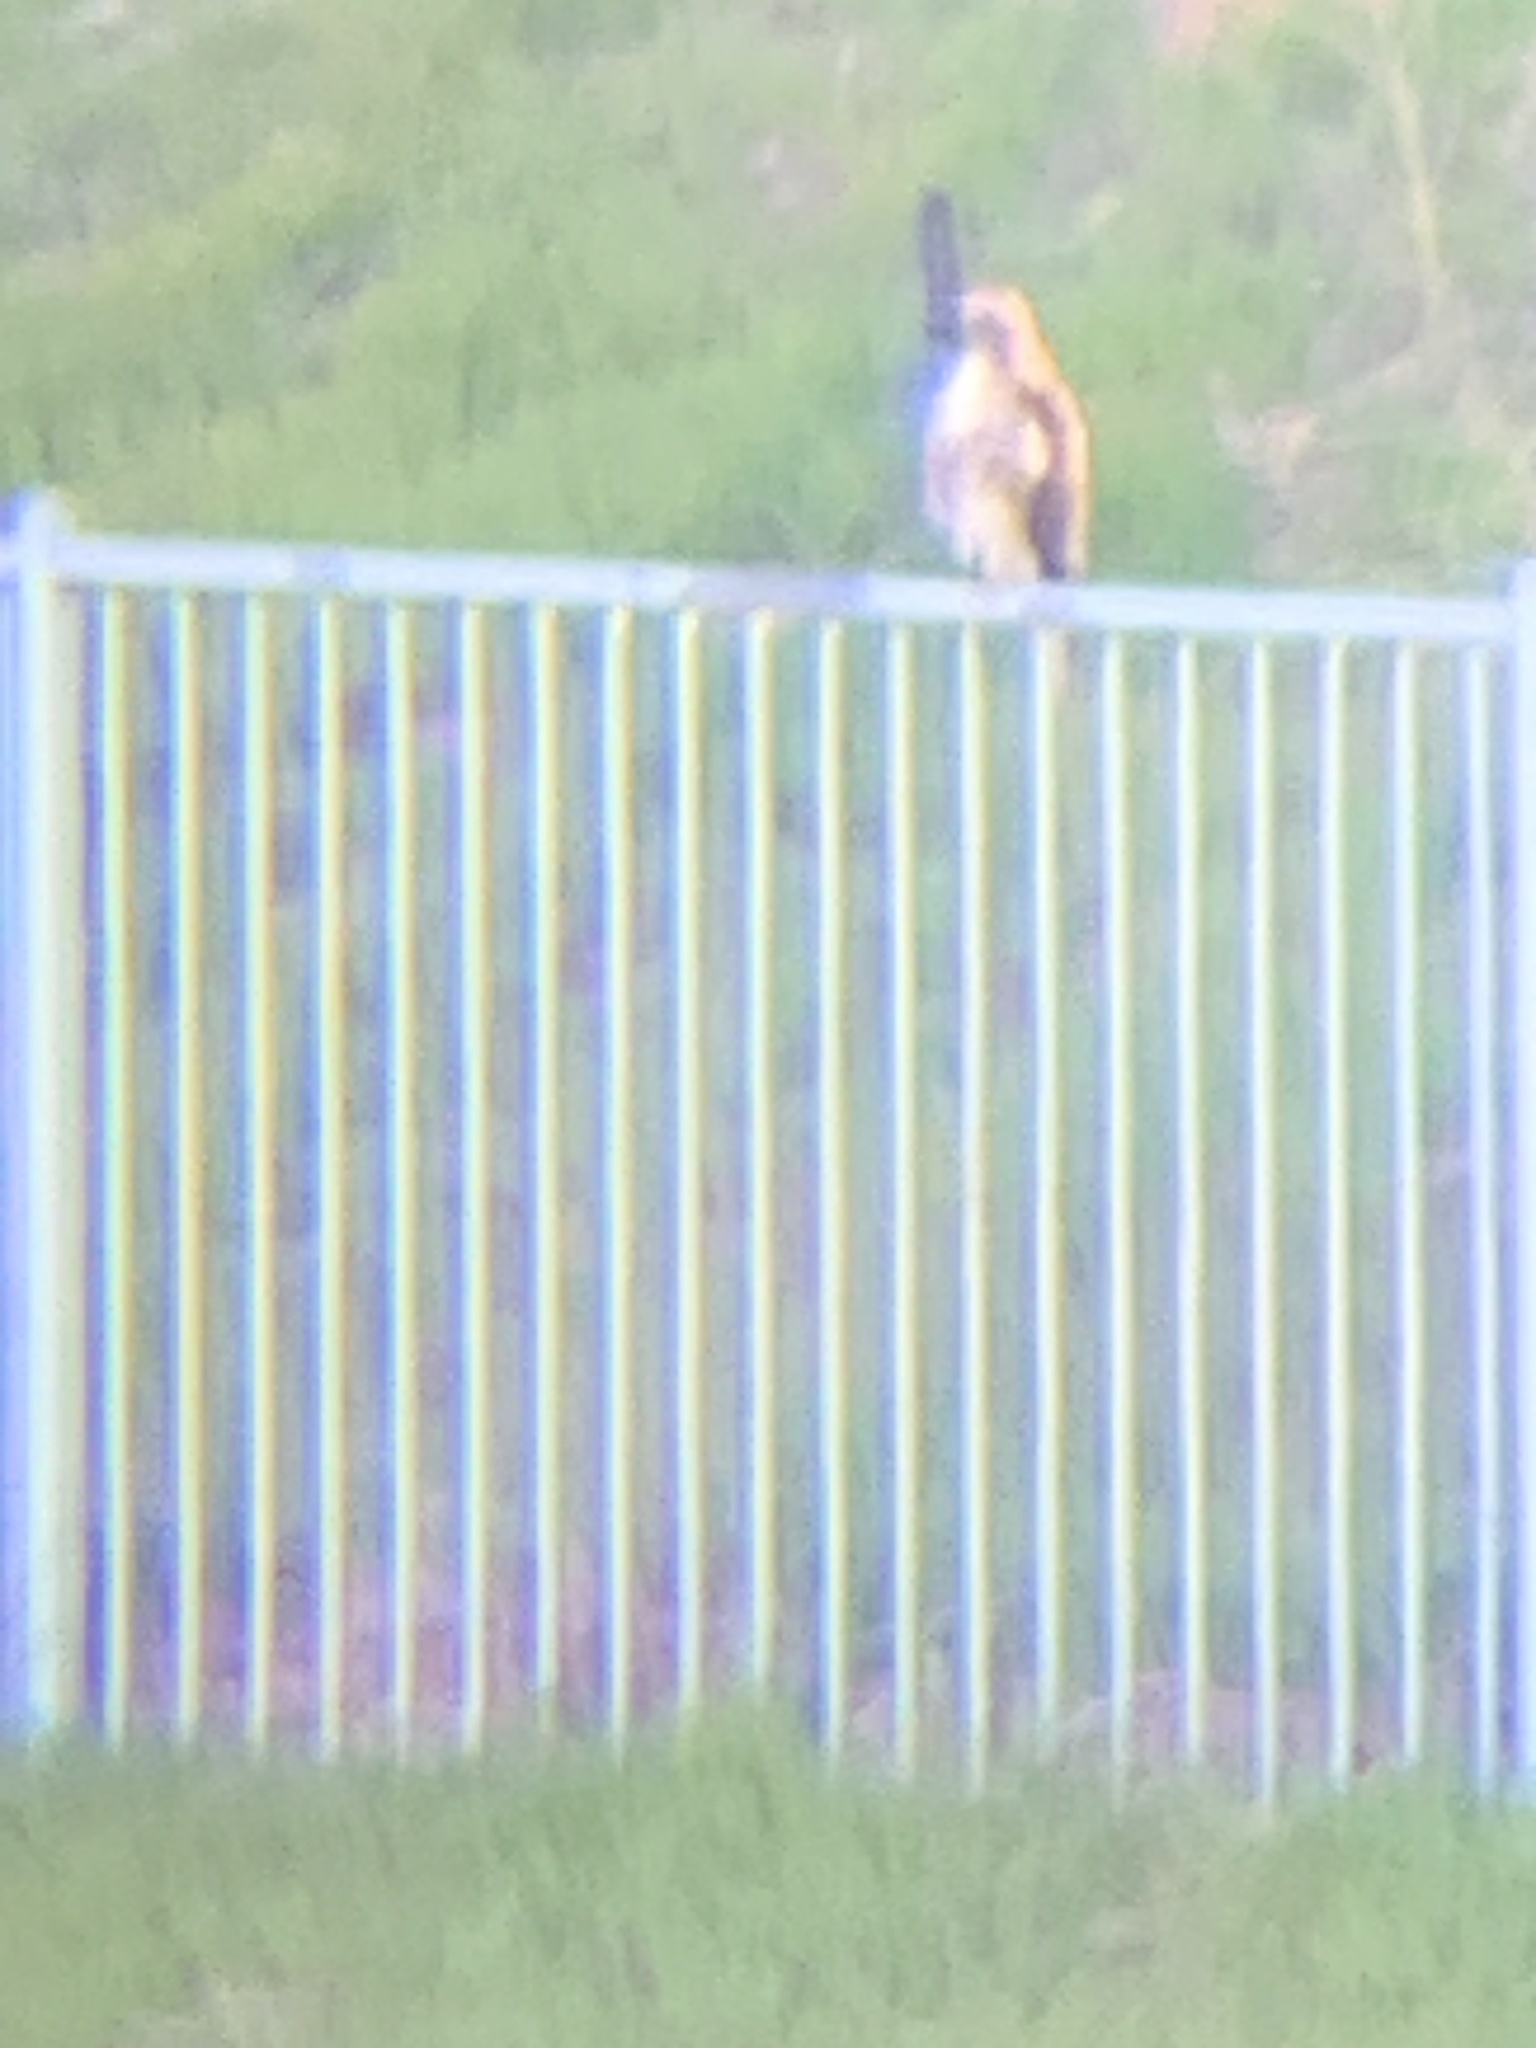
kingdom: Animalia
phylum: Chordata
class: Aves
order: Accipitriformes
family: Accipitridae
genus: Buteo
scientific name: Buteo jamaicensis
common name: Red-tailed hawk
